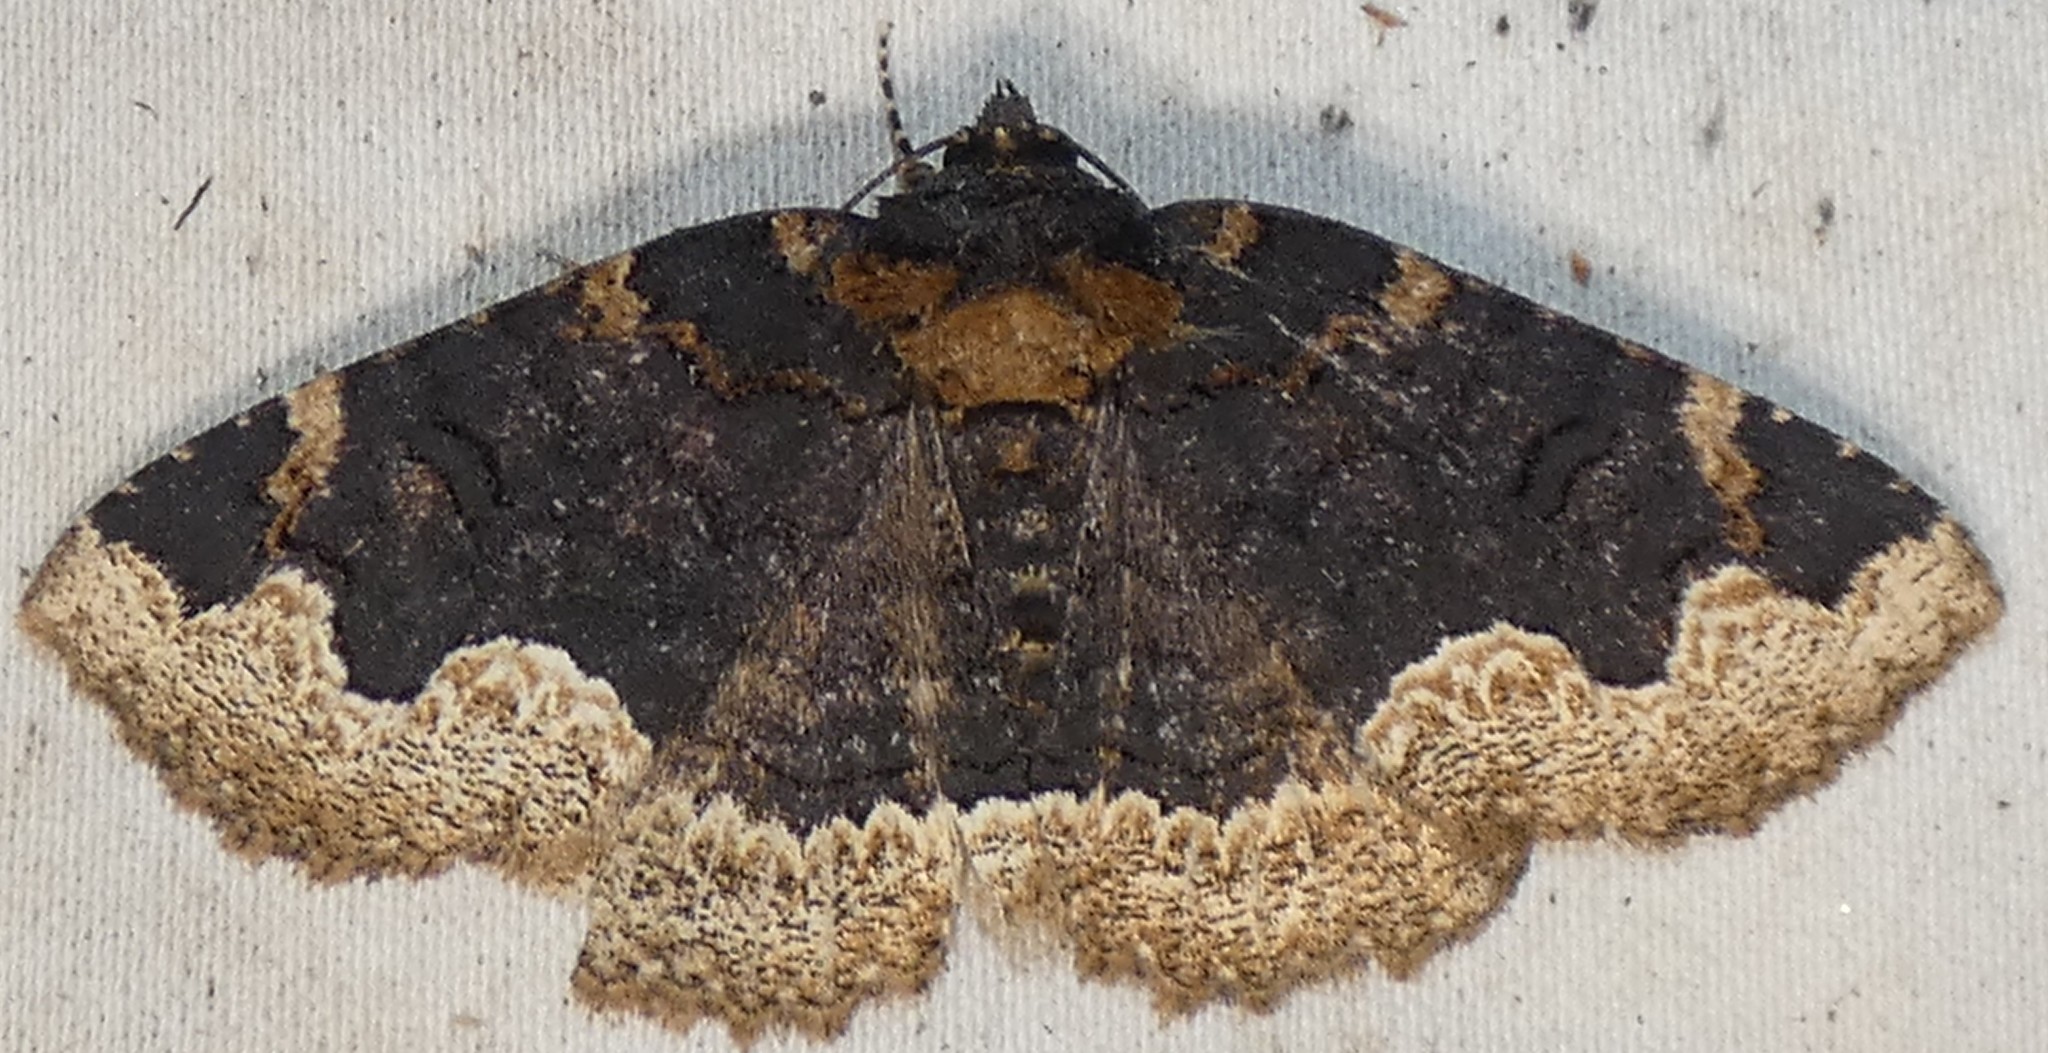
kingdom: Animalia
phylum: Arthropoda
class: Insecta
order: Lepidoptera
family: Erebidae
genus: Zale
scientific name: Zale horrida
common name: Horrid zale moth
